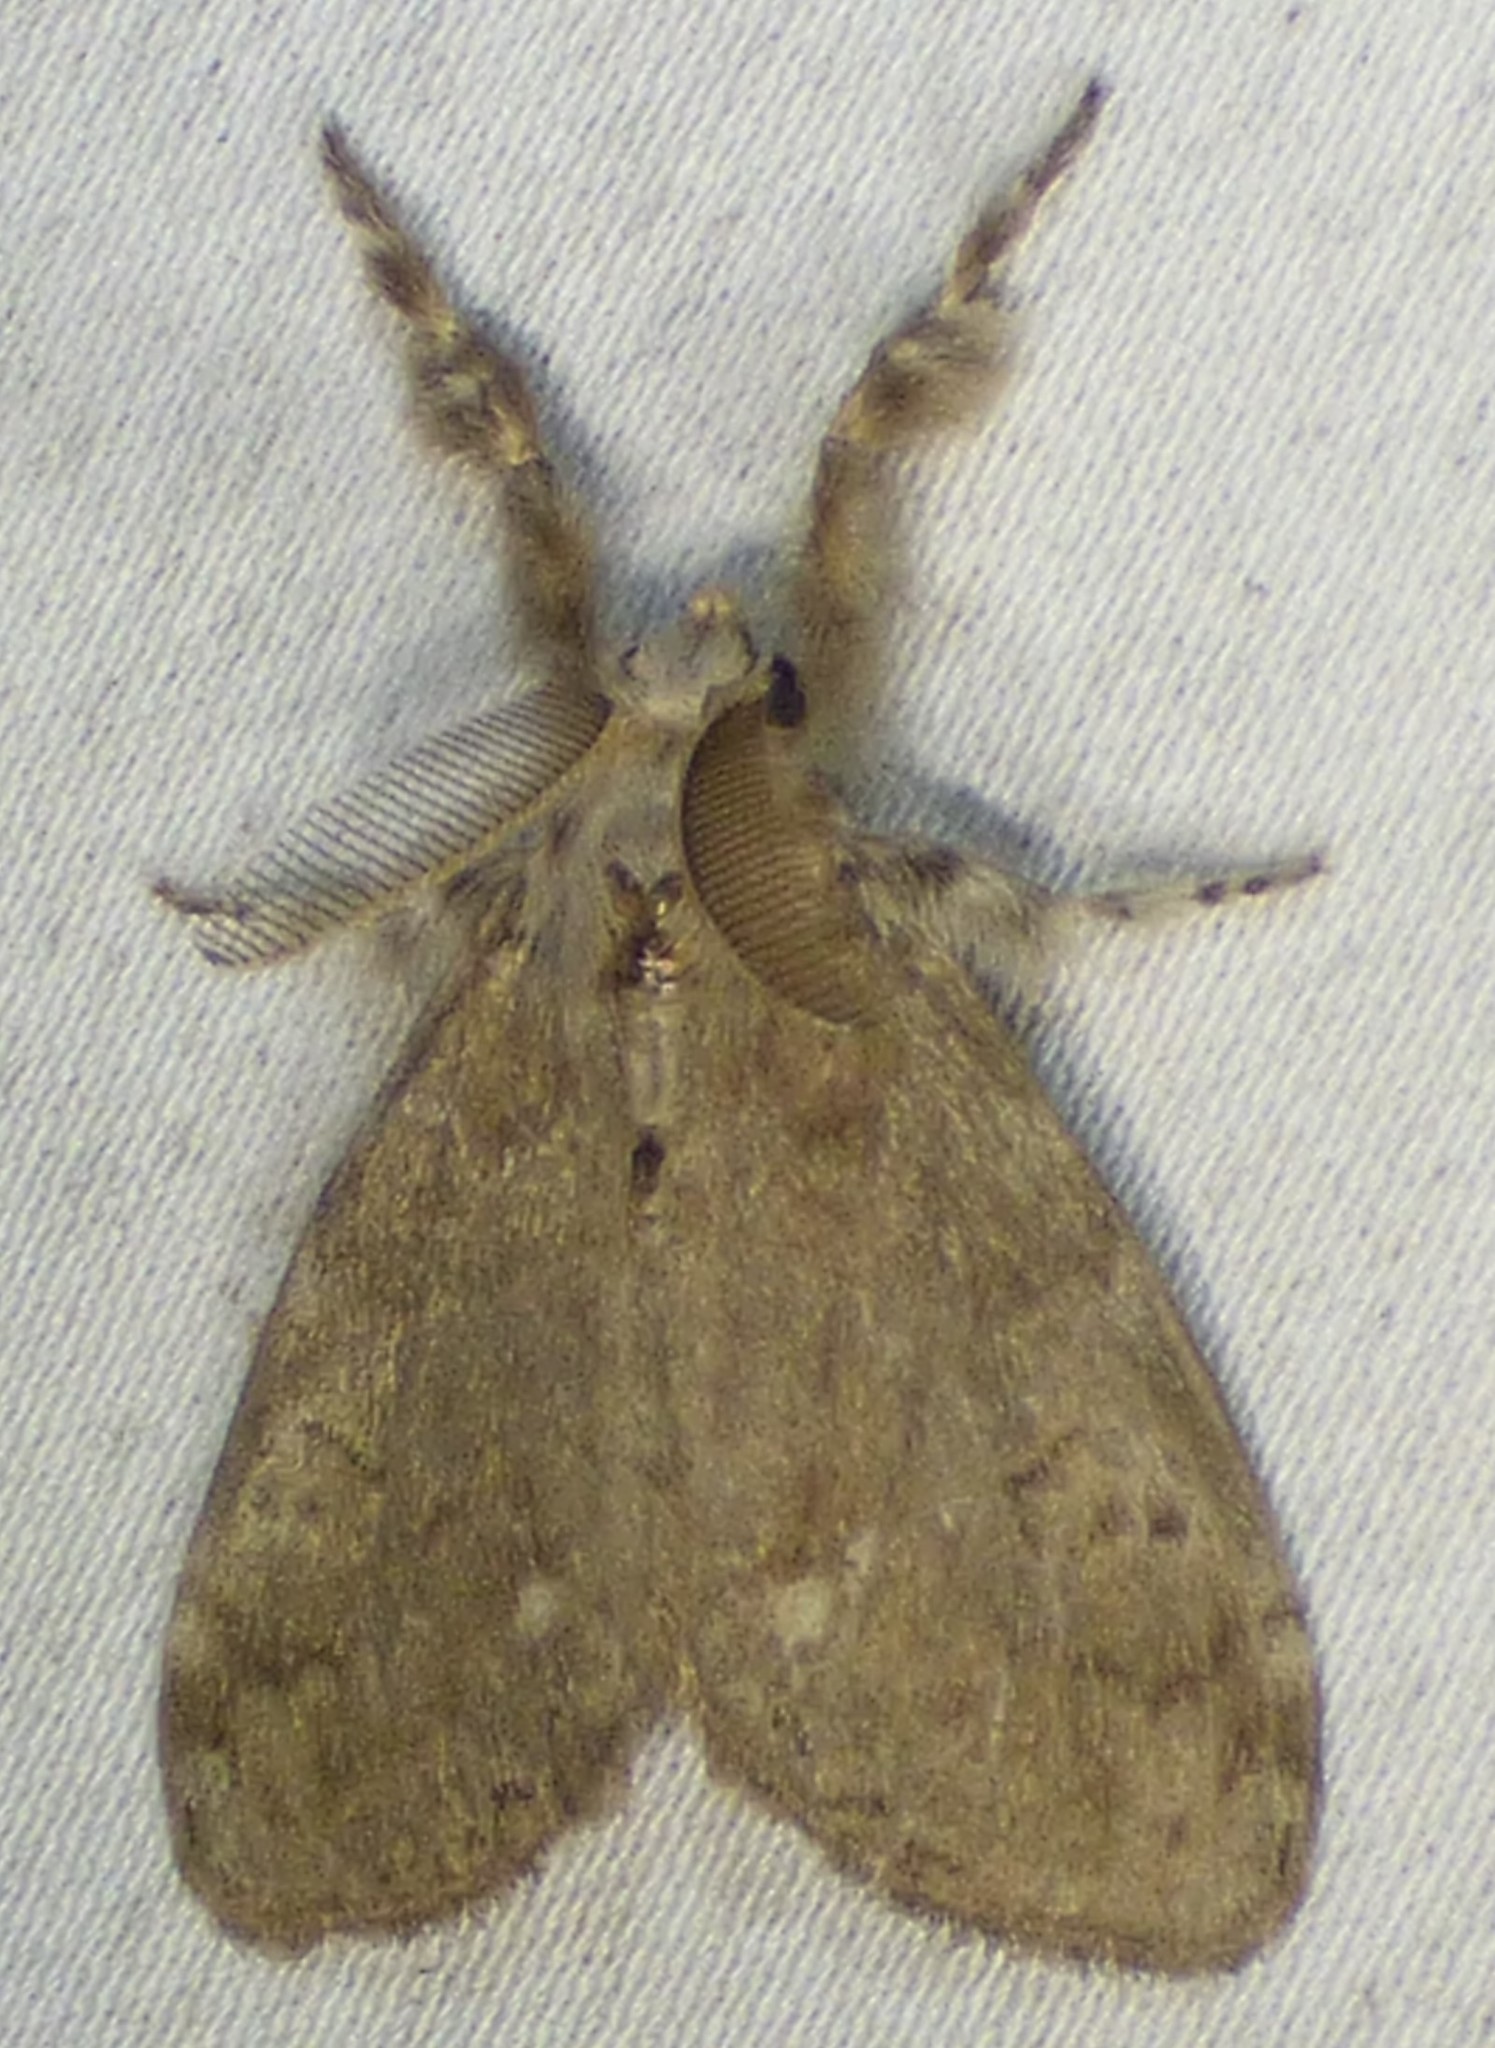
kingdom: Animalia
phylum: Arthropoda
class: Insecta
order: Lepidoptera
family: Erebidae
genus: Orgyia
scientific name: Orgyia leucostigma
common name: White-marked tussock moth
